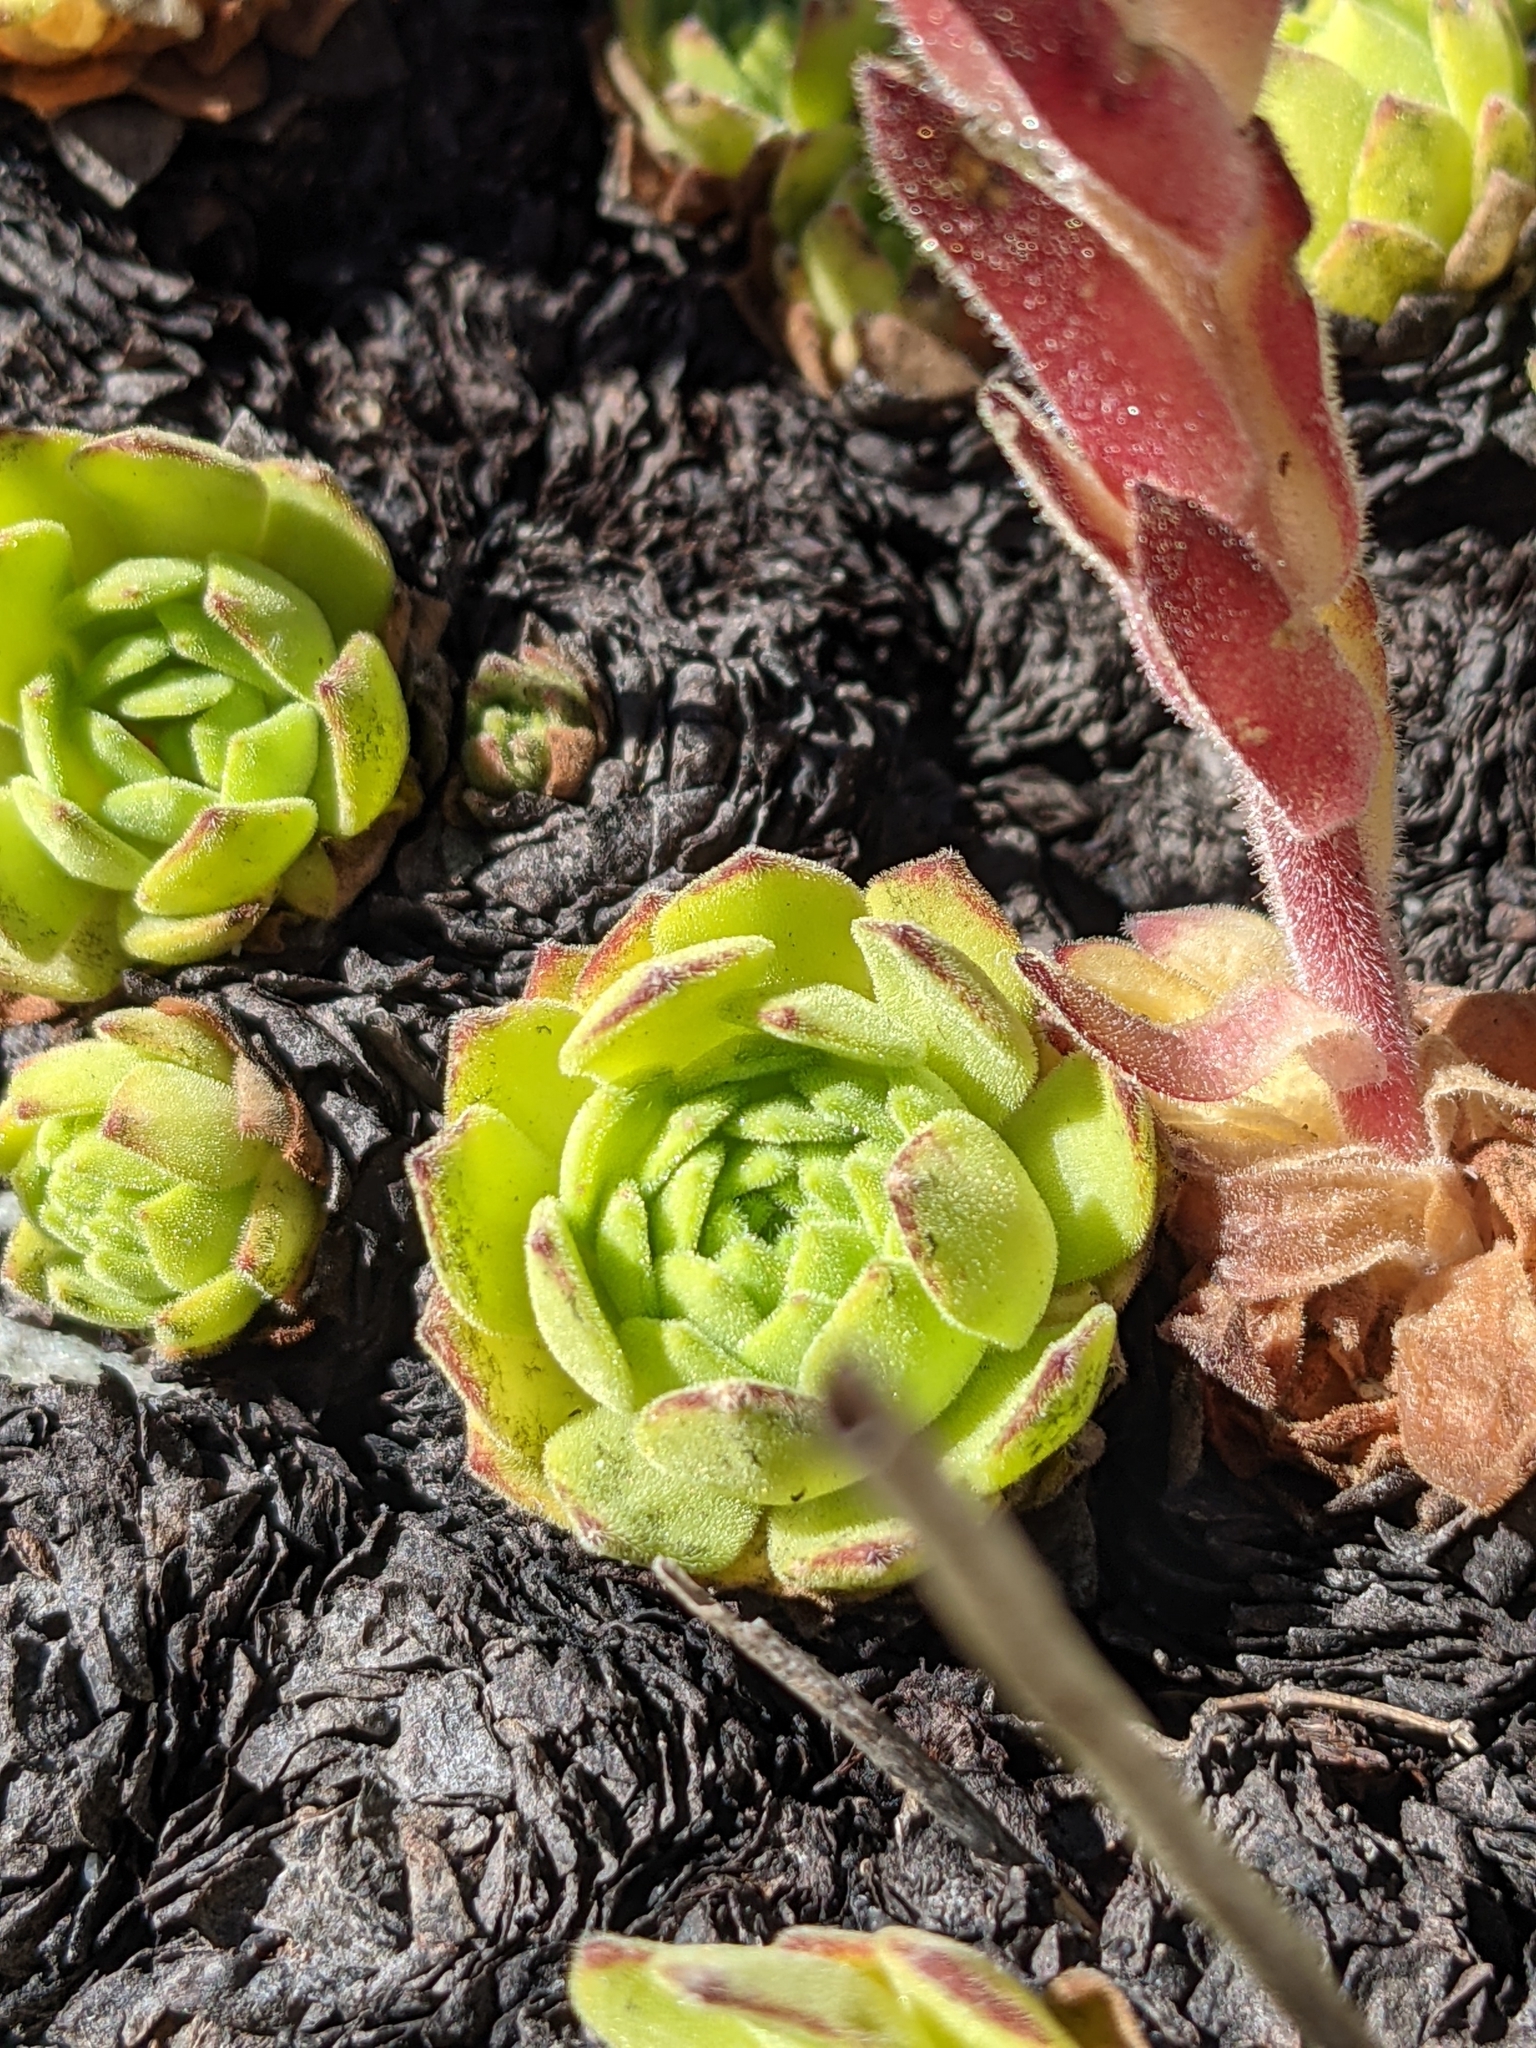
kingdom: Plantae
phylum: Tracheophyta
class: Magnoliopsida
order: Saxifragales
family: Crassulaceae
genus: Sempervivum
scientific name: Sempervivum montanum
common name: Mountain house-leek
